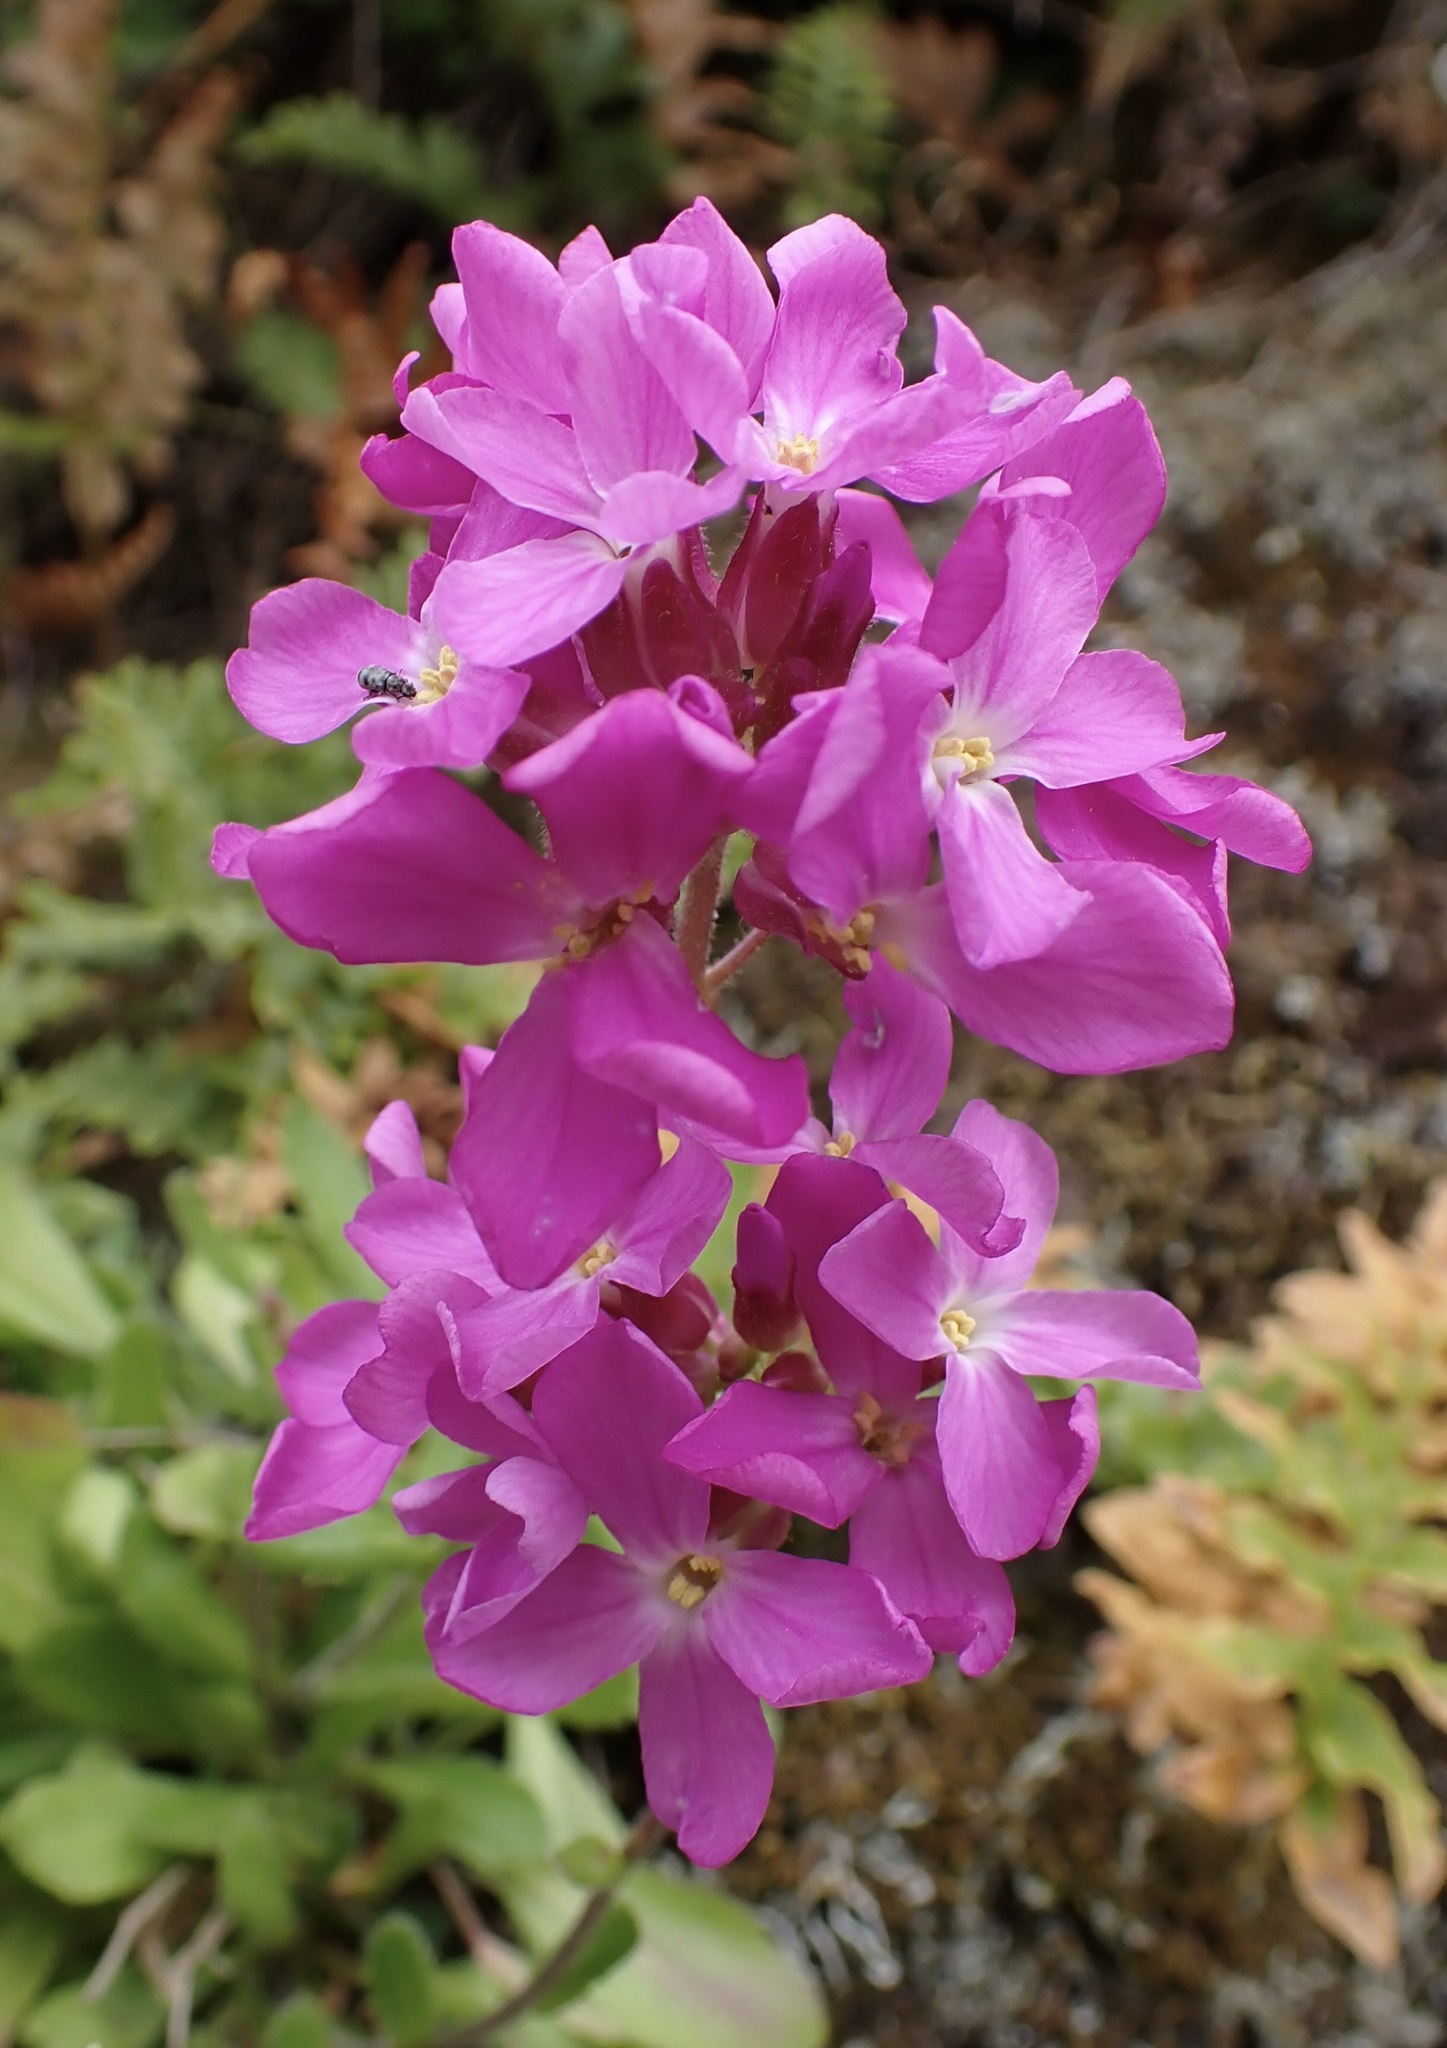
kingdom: Plantae
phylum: Tracheophyta
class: Magnoliopsida
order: Brassicales
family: Brassicaceae
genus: Arabis
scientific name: Arabis blepharophylla
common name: Rose rockcress
